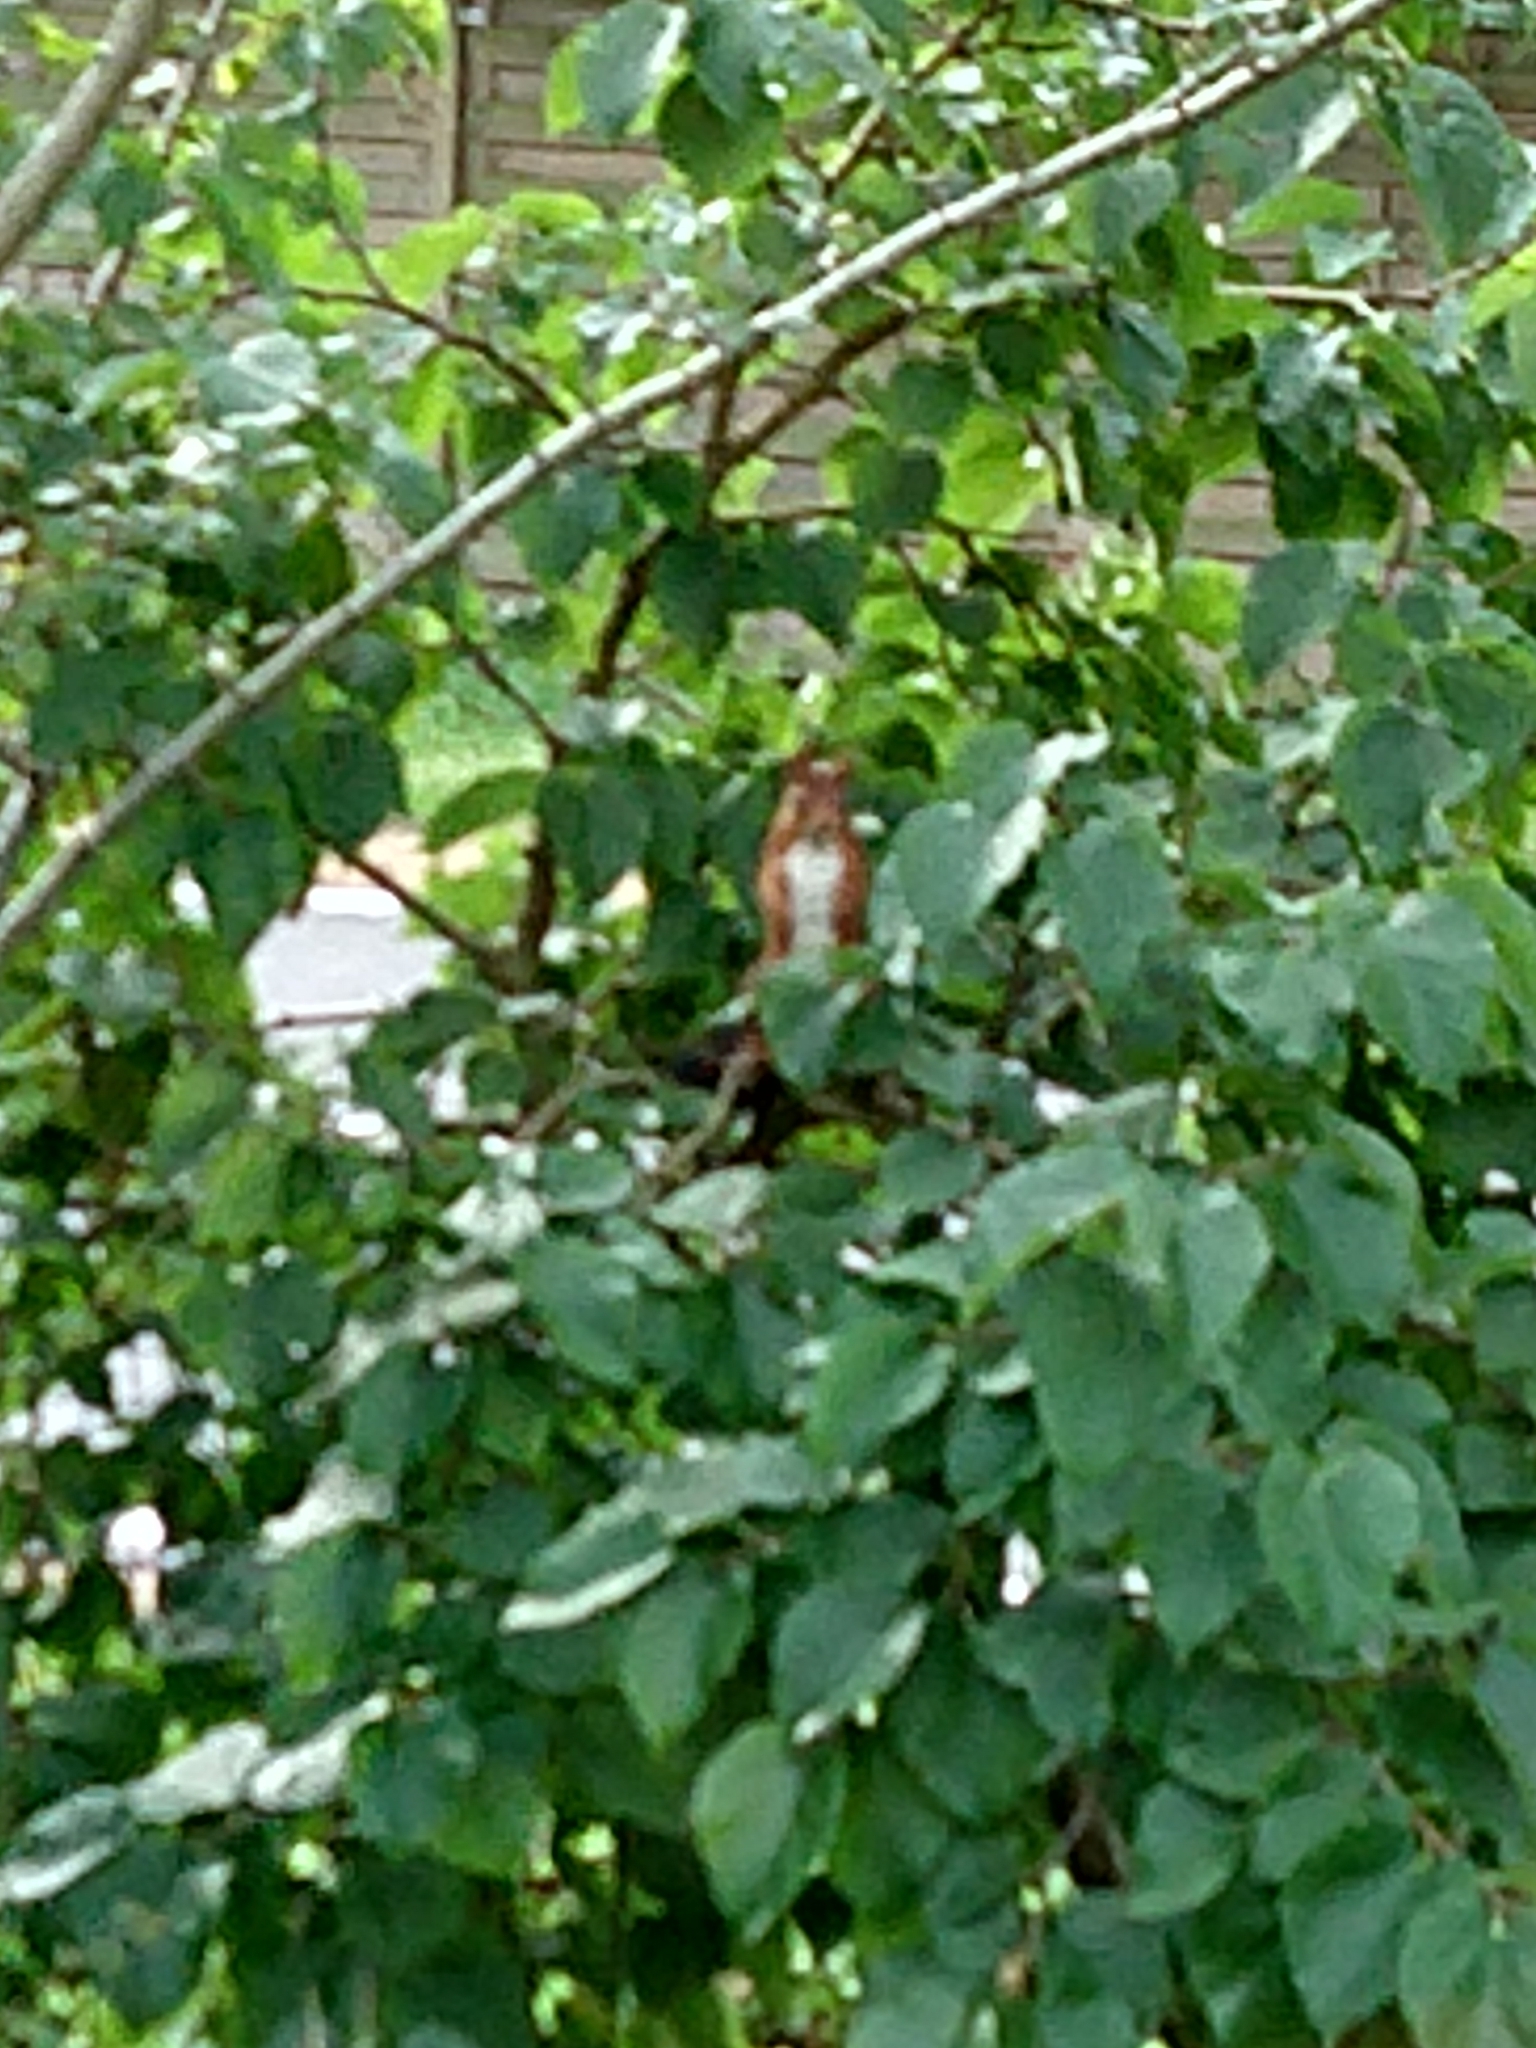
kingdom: Animalia
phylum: Chordata
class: Mammalia
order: Rodentia
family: Sciuridae
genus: Sciurus
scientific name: Sciurus vulgaris
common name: Eurasian red squirrel
